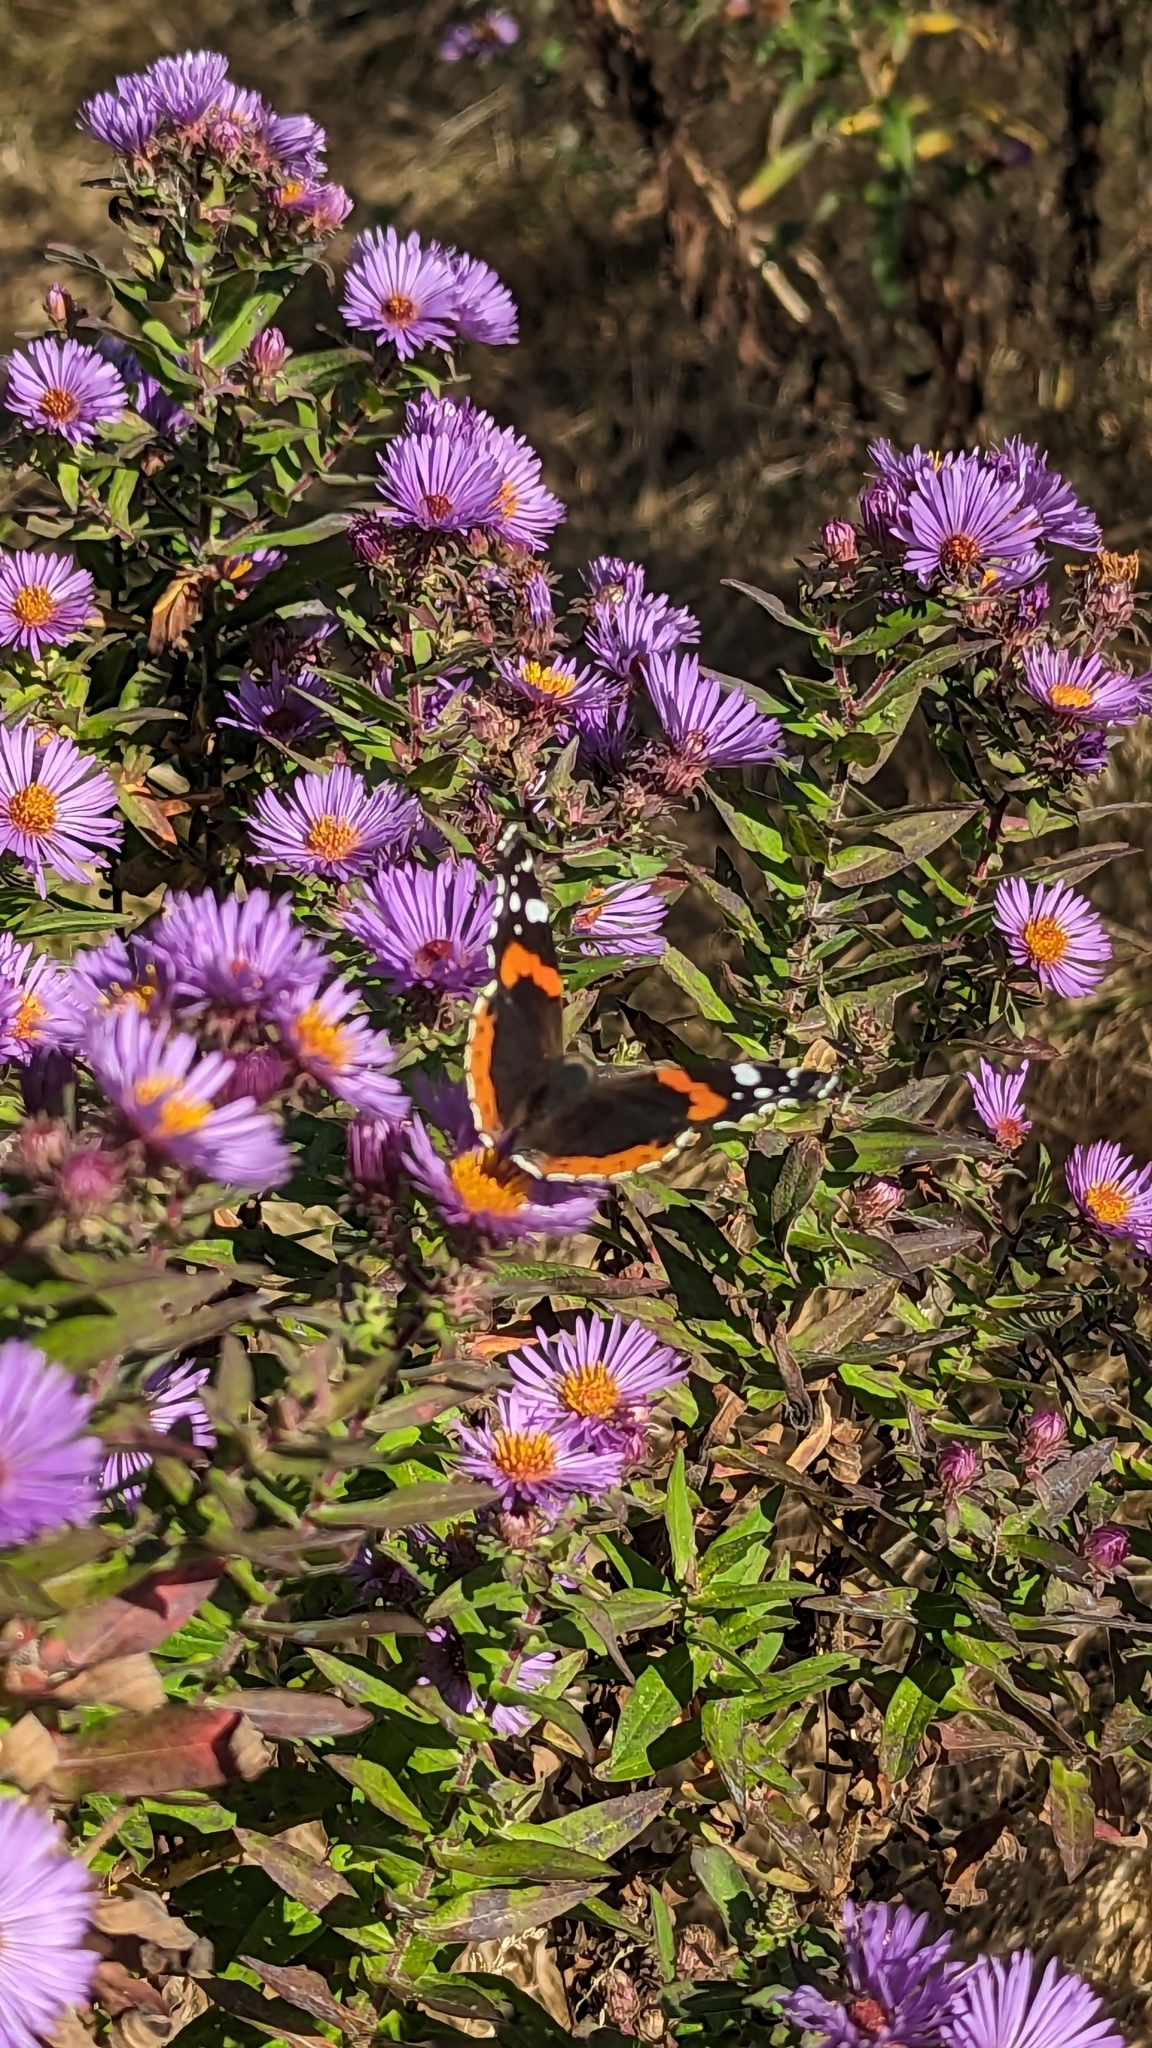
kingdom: Animalia
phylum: Arthropoda
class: Insecta
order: Lepidoptera
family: Nymphalidae
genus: Vanessa
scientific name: Vanessa atalanta
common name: Red admiral
